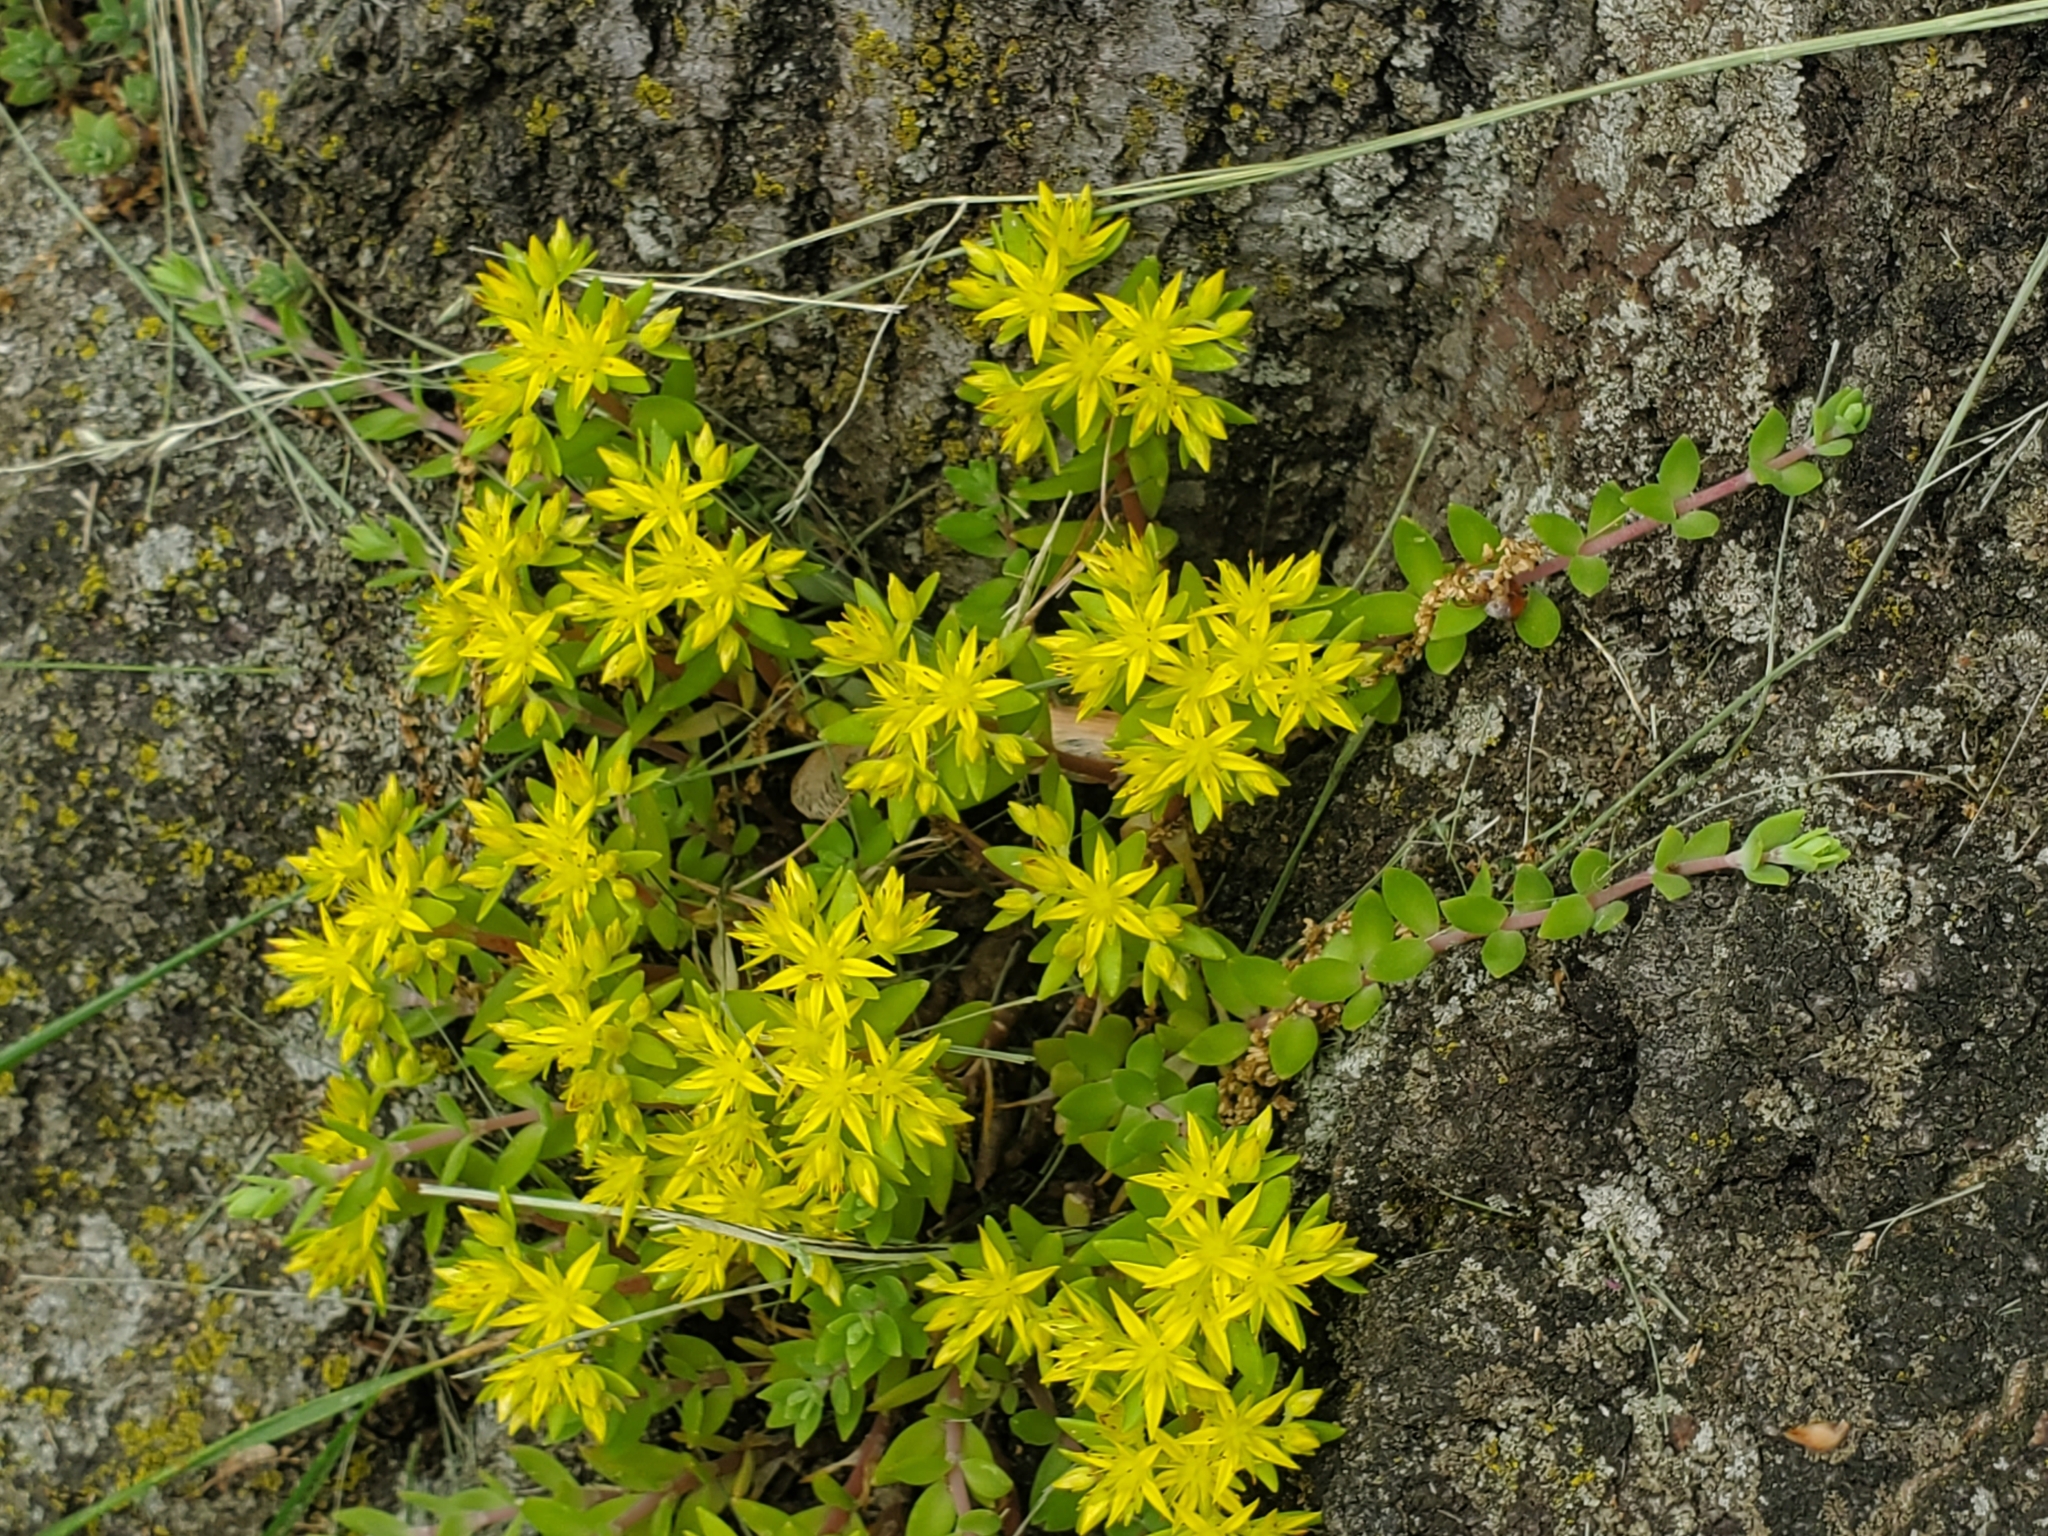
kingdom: Plantae
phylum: Tracheophyta
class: Magnoliopsida
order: Saxifragales
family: Crassulaceae
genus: Sedum
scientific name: Sedum sarmentosum
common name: Stringy stonecrop
